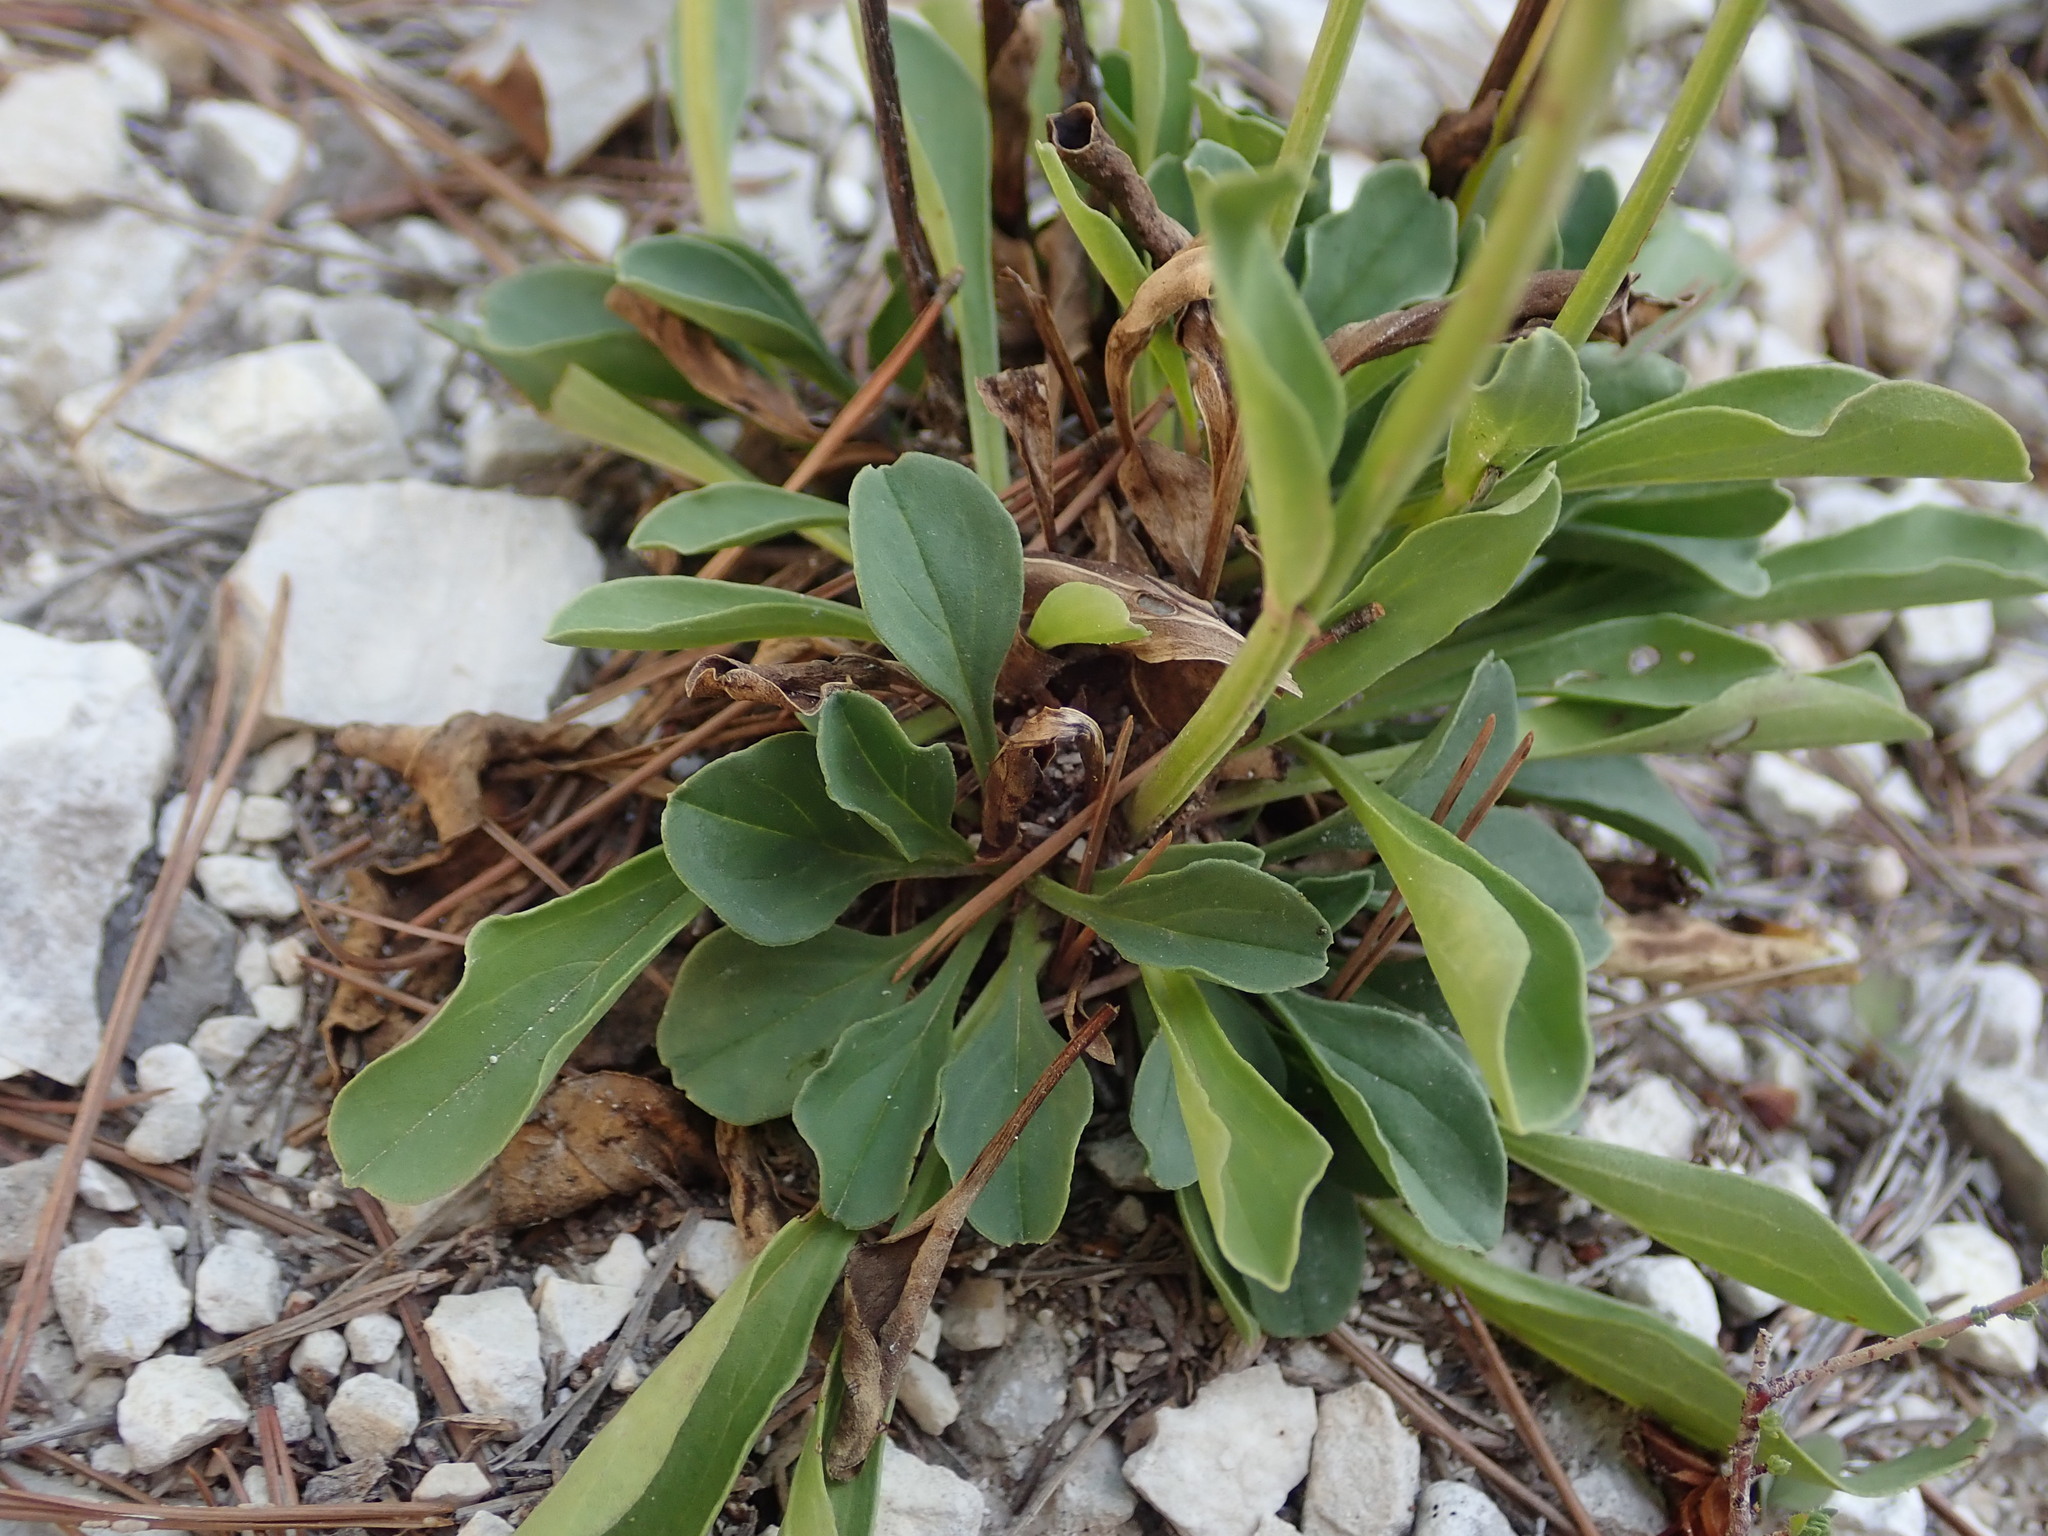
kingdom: Plantae
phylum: Tracheophyta
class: Magnoliopsida
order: Lamiales
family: Plantaginaceae
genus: Globularia
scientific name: Globularia bisnagarica
